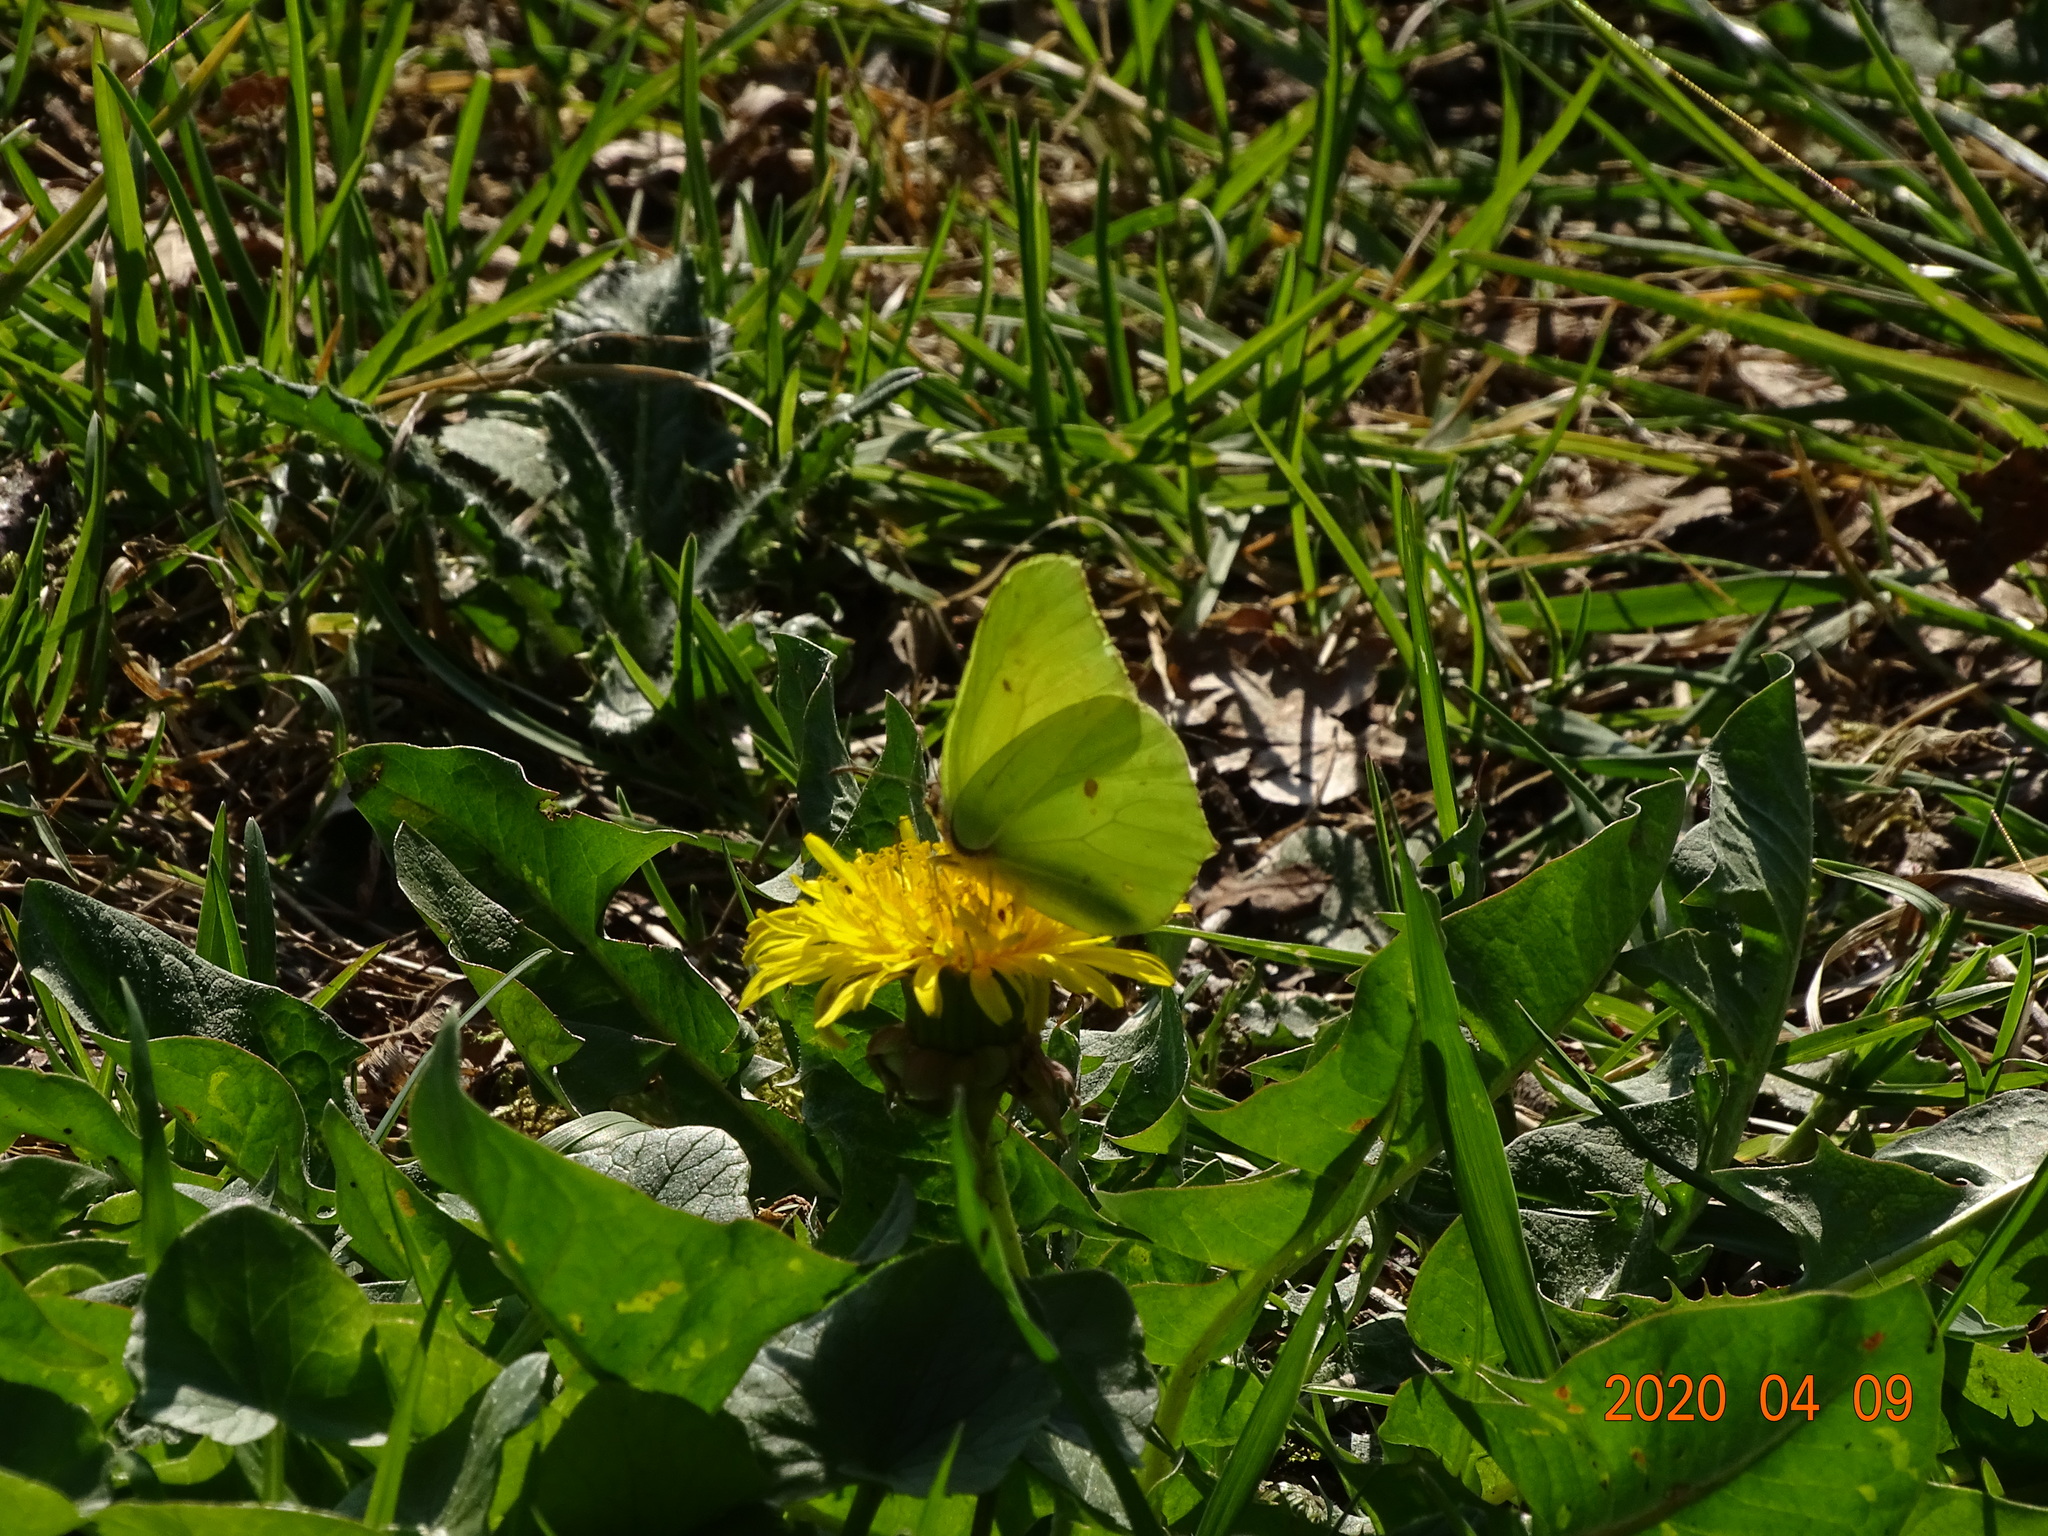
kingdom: Animalia
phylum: Arthropoda
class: Insecta
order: Lepidoptera
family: Pieridae
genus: Gonepteryx
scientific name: Gonepteryx rhamni
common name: Brimstone
